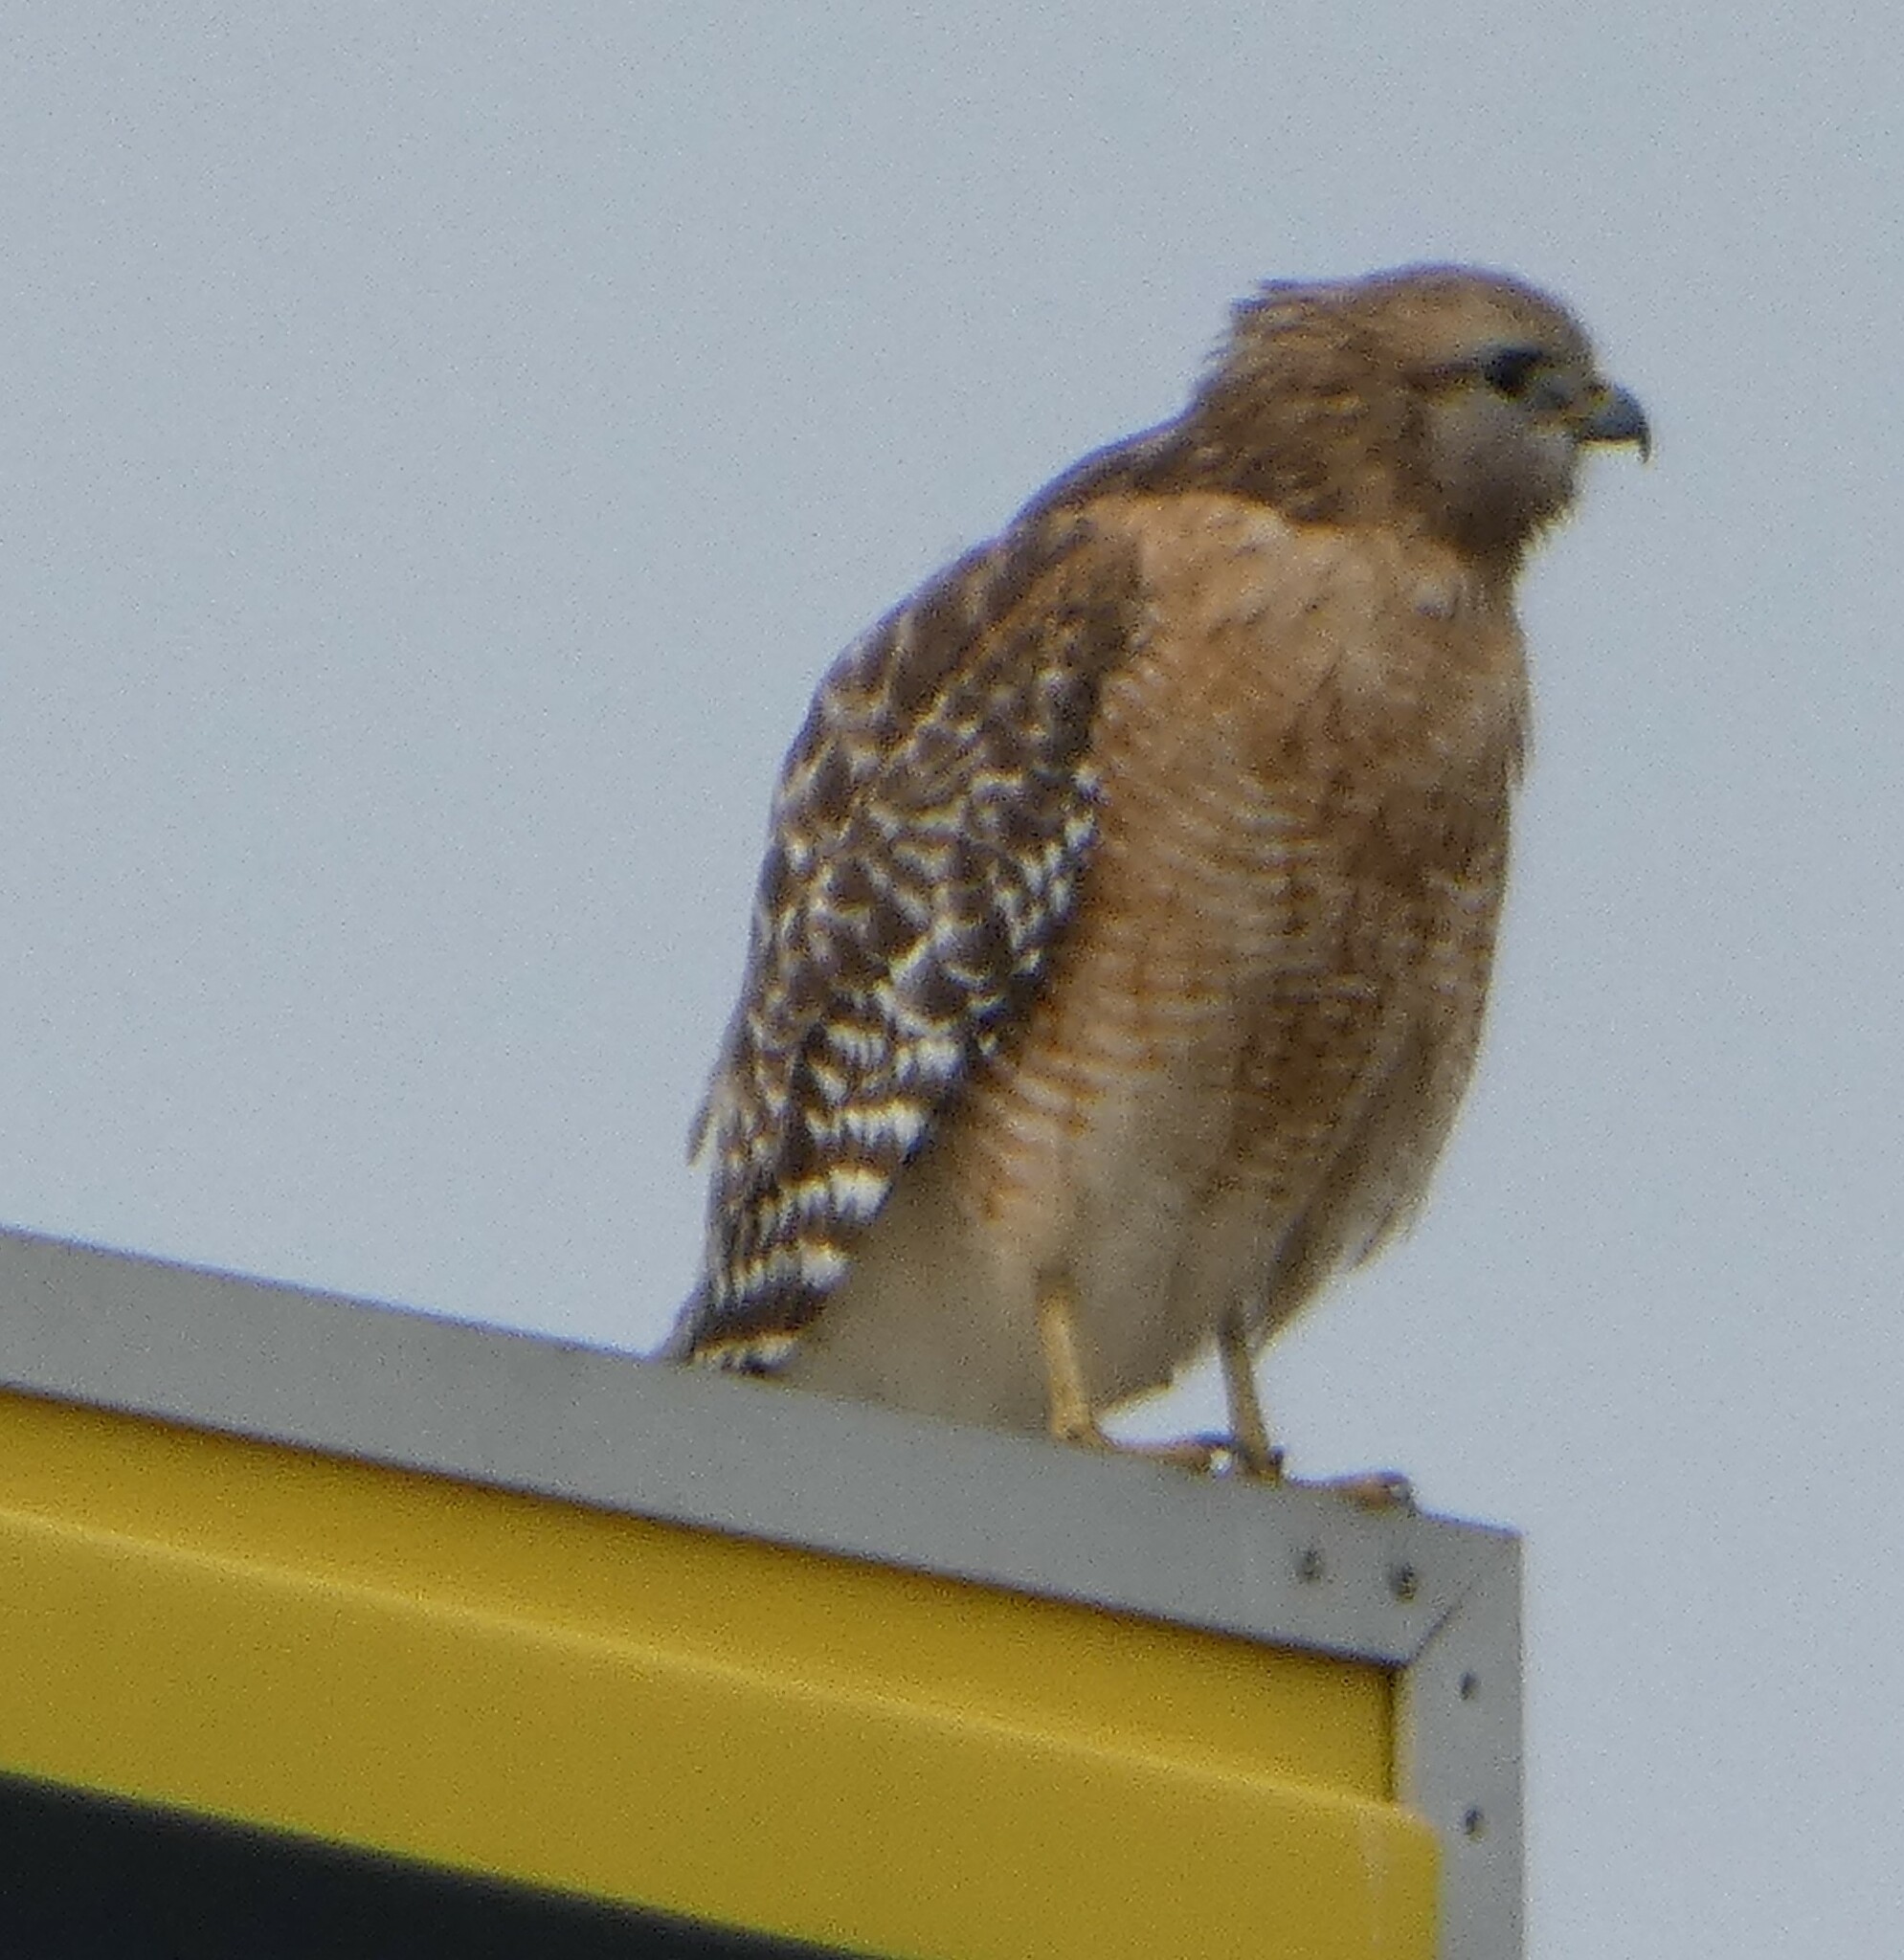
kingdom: Animalia
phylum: Chordata
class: Aves
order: Accipitriformes
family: Accipitridae
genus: Buteo
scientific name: Buteo lineatus
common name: Red-shouldered hawk
